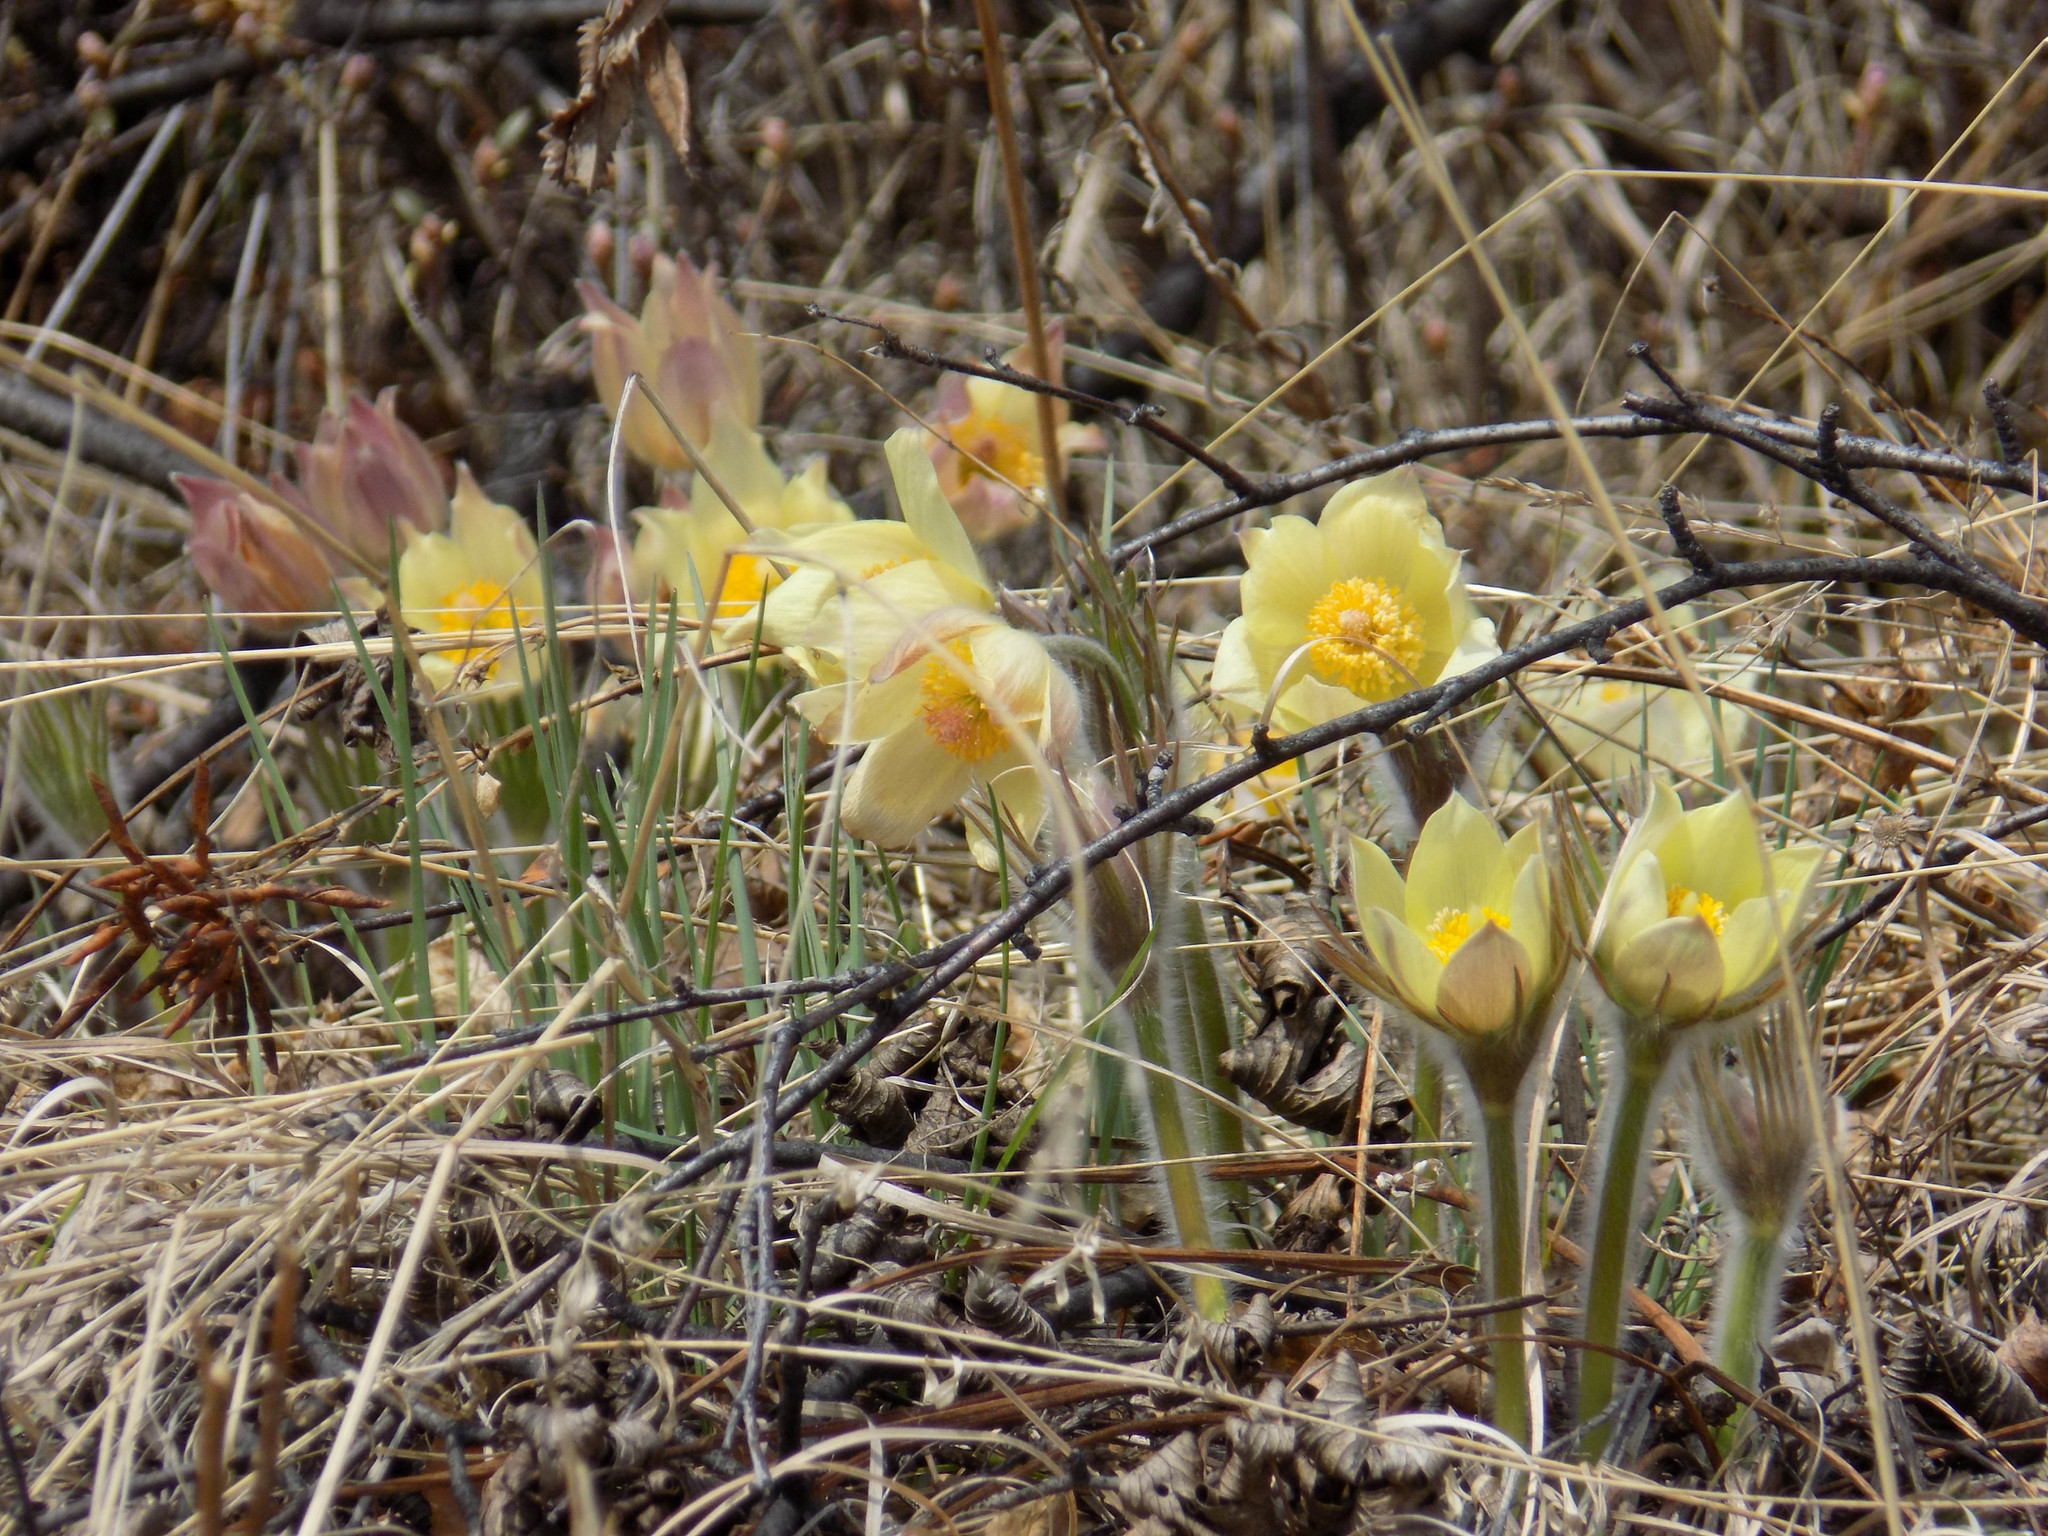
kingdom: Plantae
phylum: Tracheophyta
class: Magnoliopsida
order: Ranunculales
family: Ranunculaceae
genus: Pulsatilla
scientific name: Pulsatilla patens
